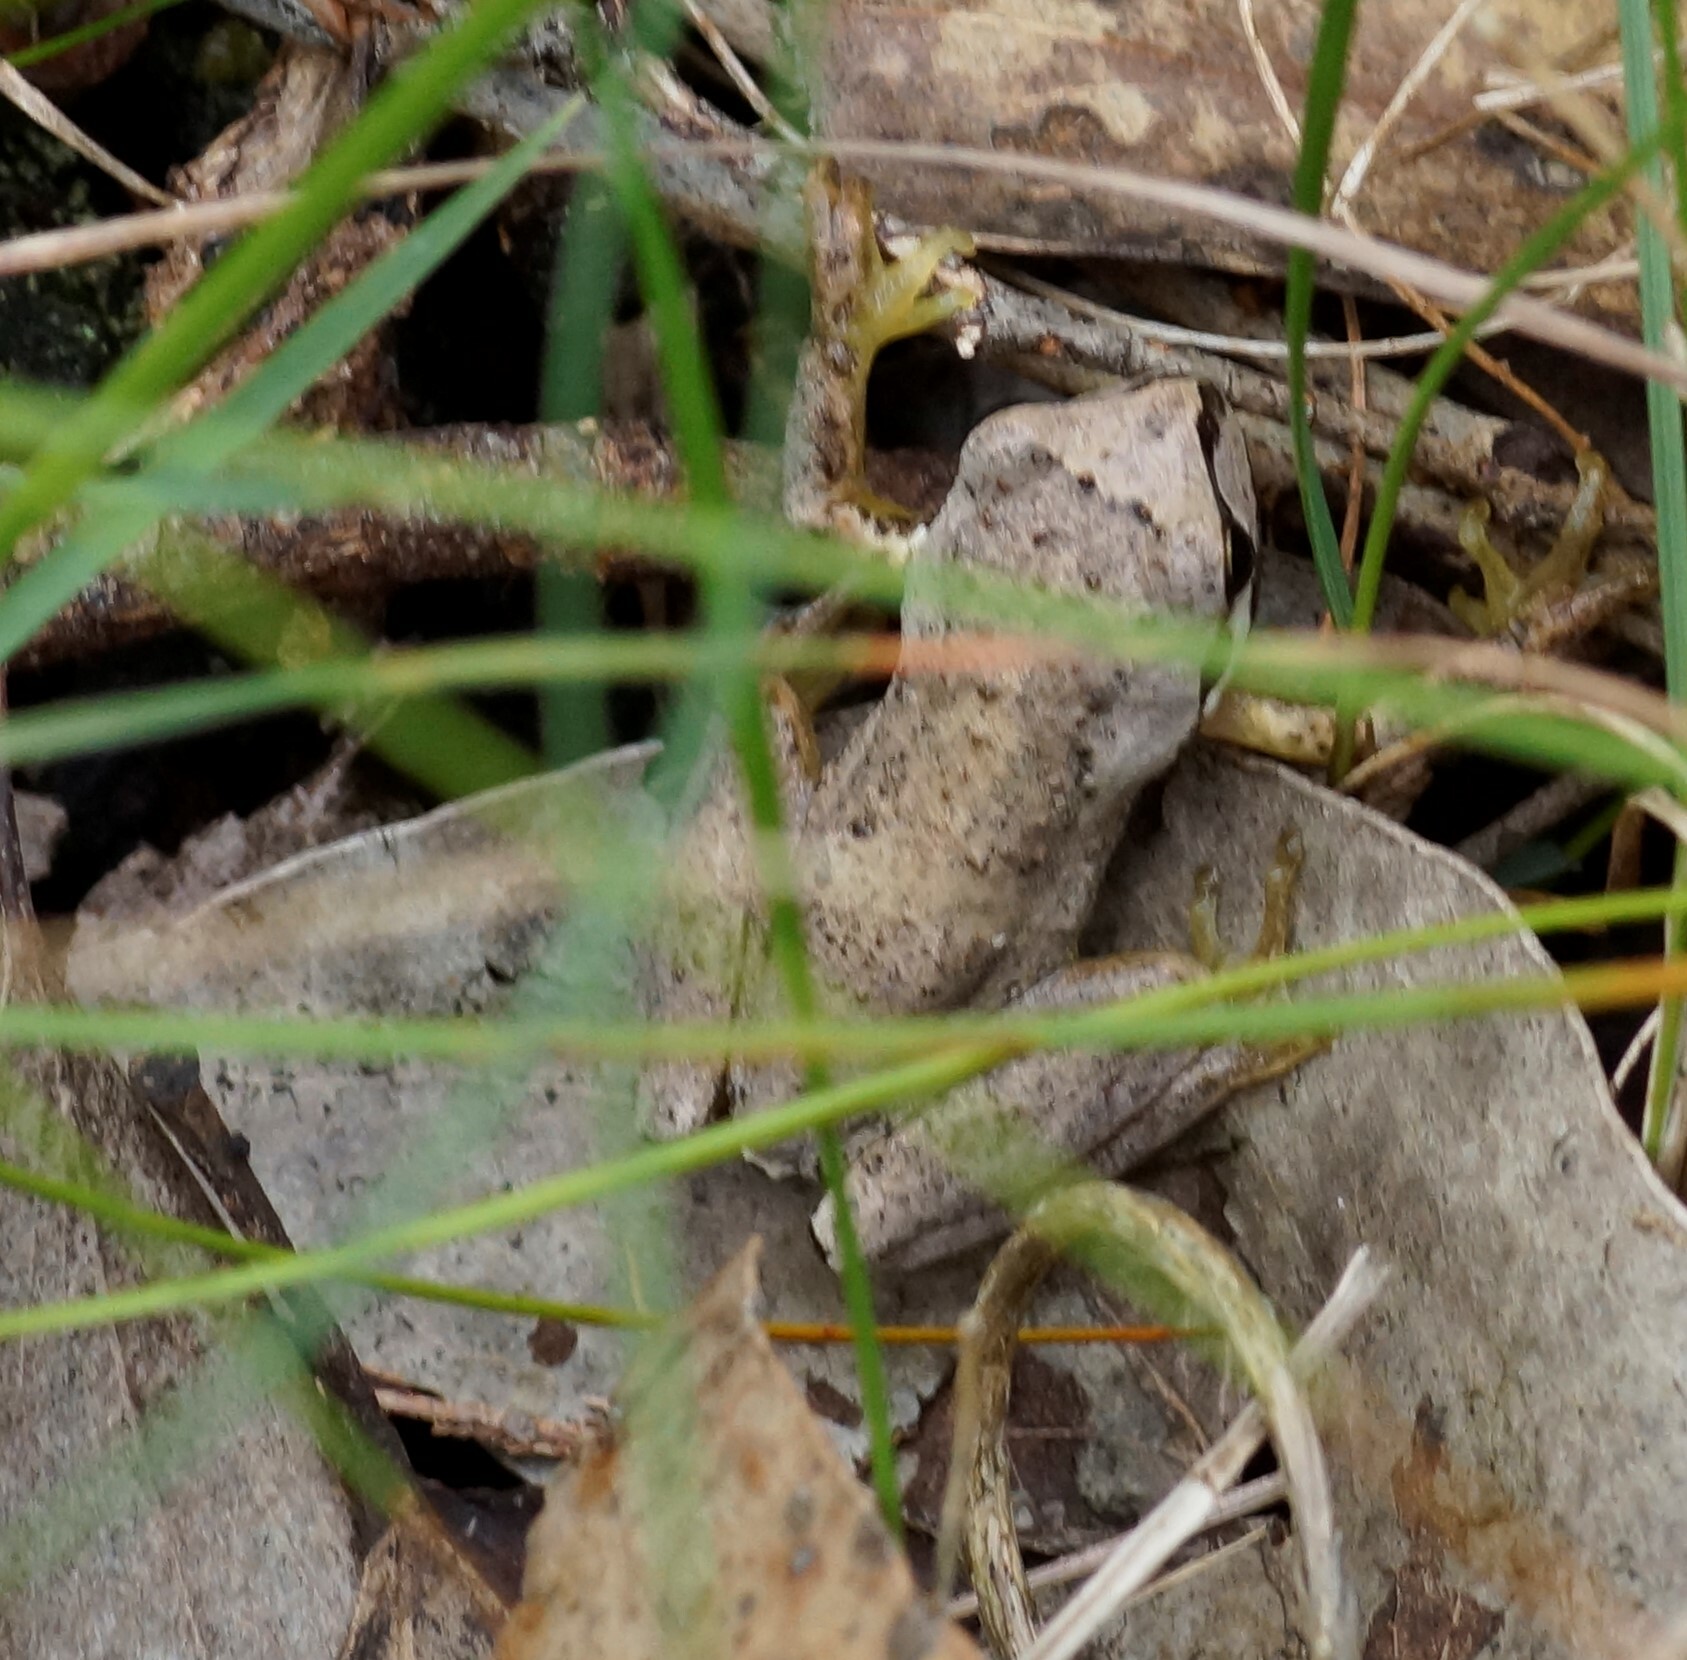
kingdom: Animalia
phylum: Chordata
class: Amphibia
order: Anura
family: Pelodryadidae
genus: Litoria
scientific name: Litoria ewingii
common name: Southern brown tree frog
